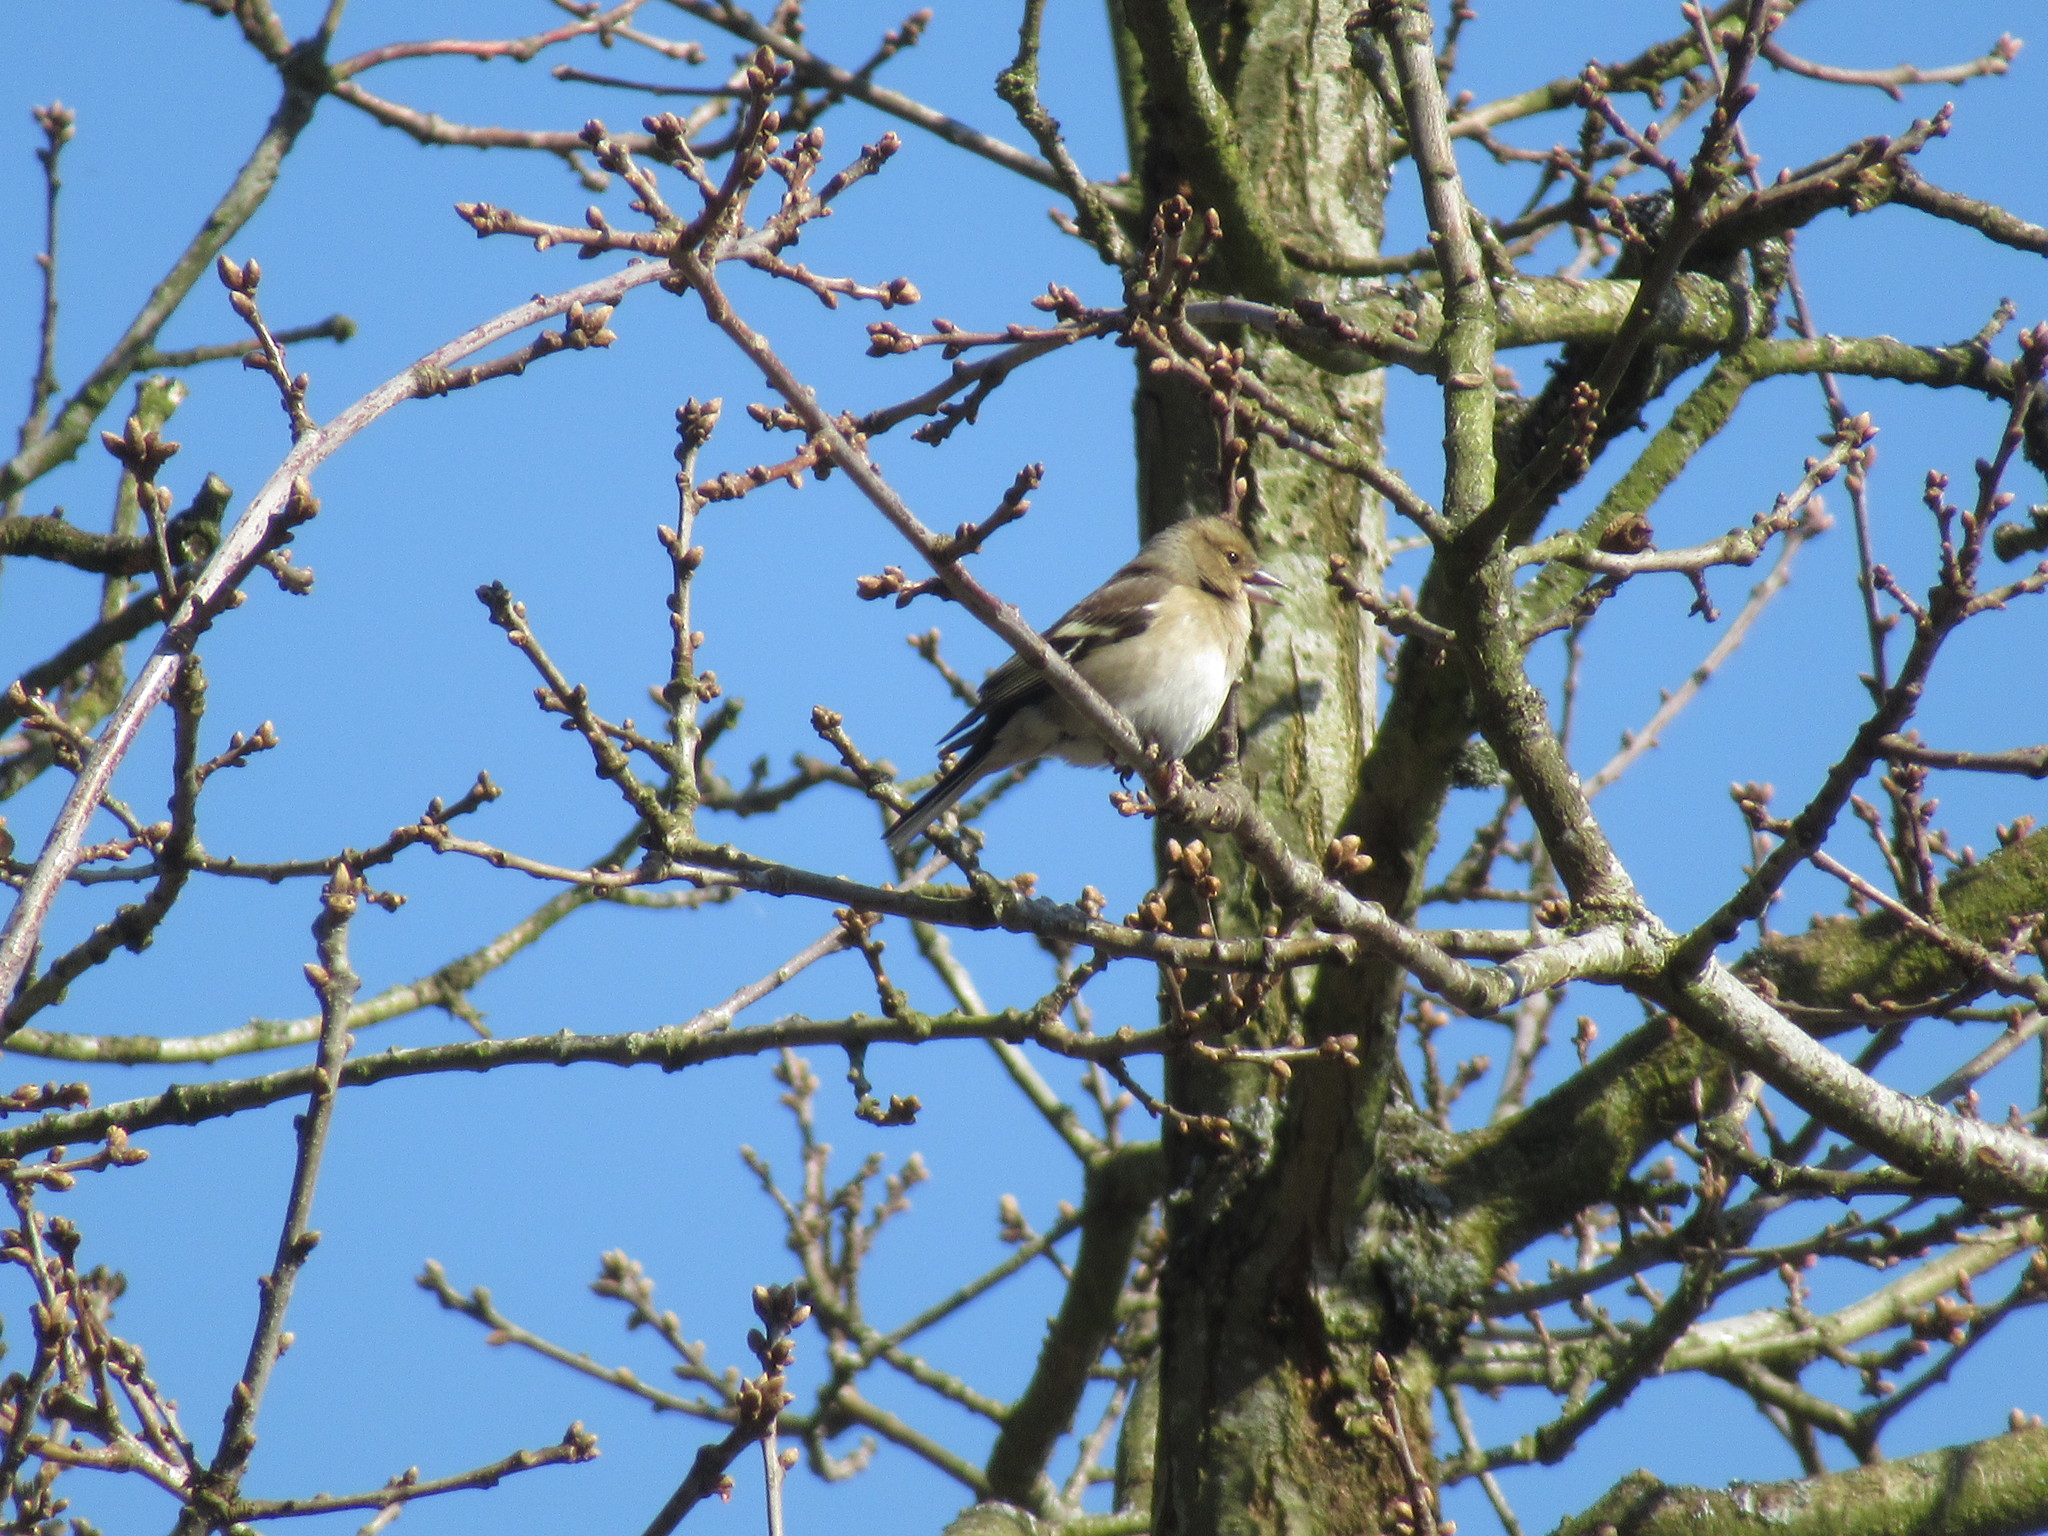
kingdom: Animalia
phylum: Chordata
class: Aves
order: Passeriformes
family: Fringillidae
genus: Fringilla
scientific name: Fringilla coelebs
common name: Common chaffinch
